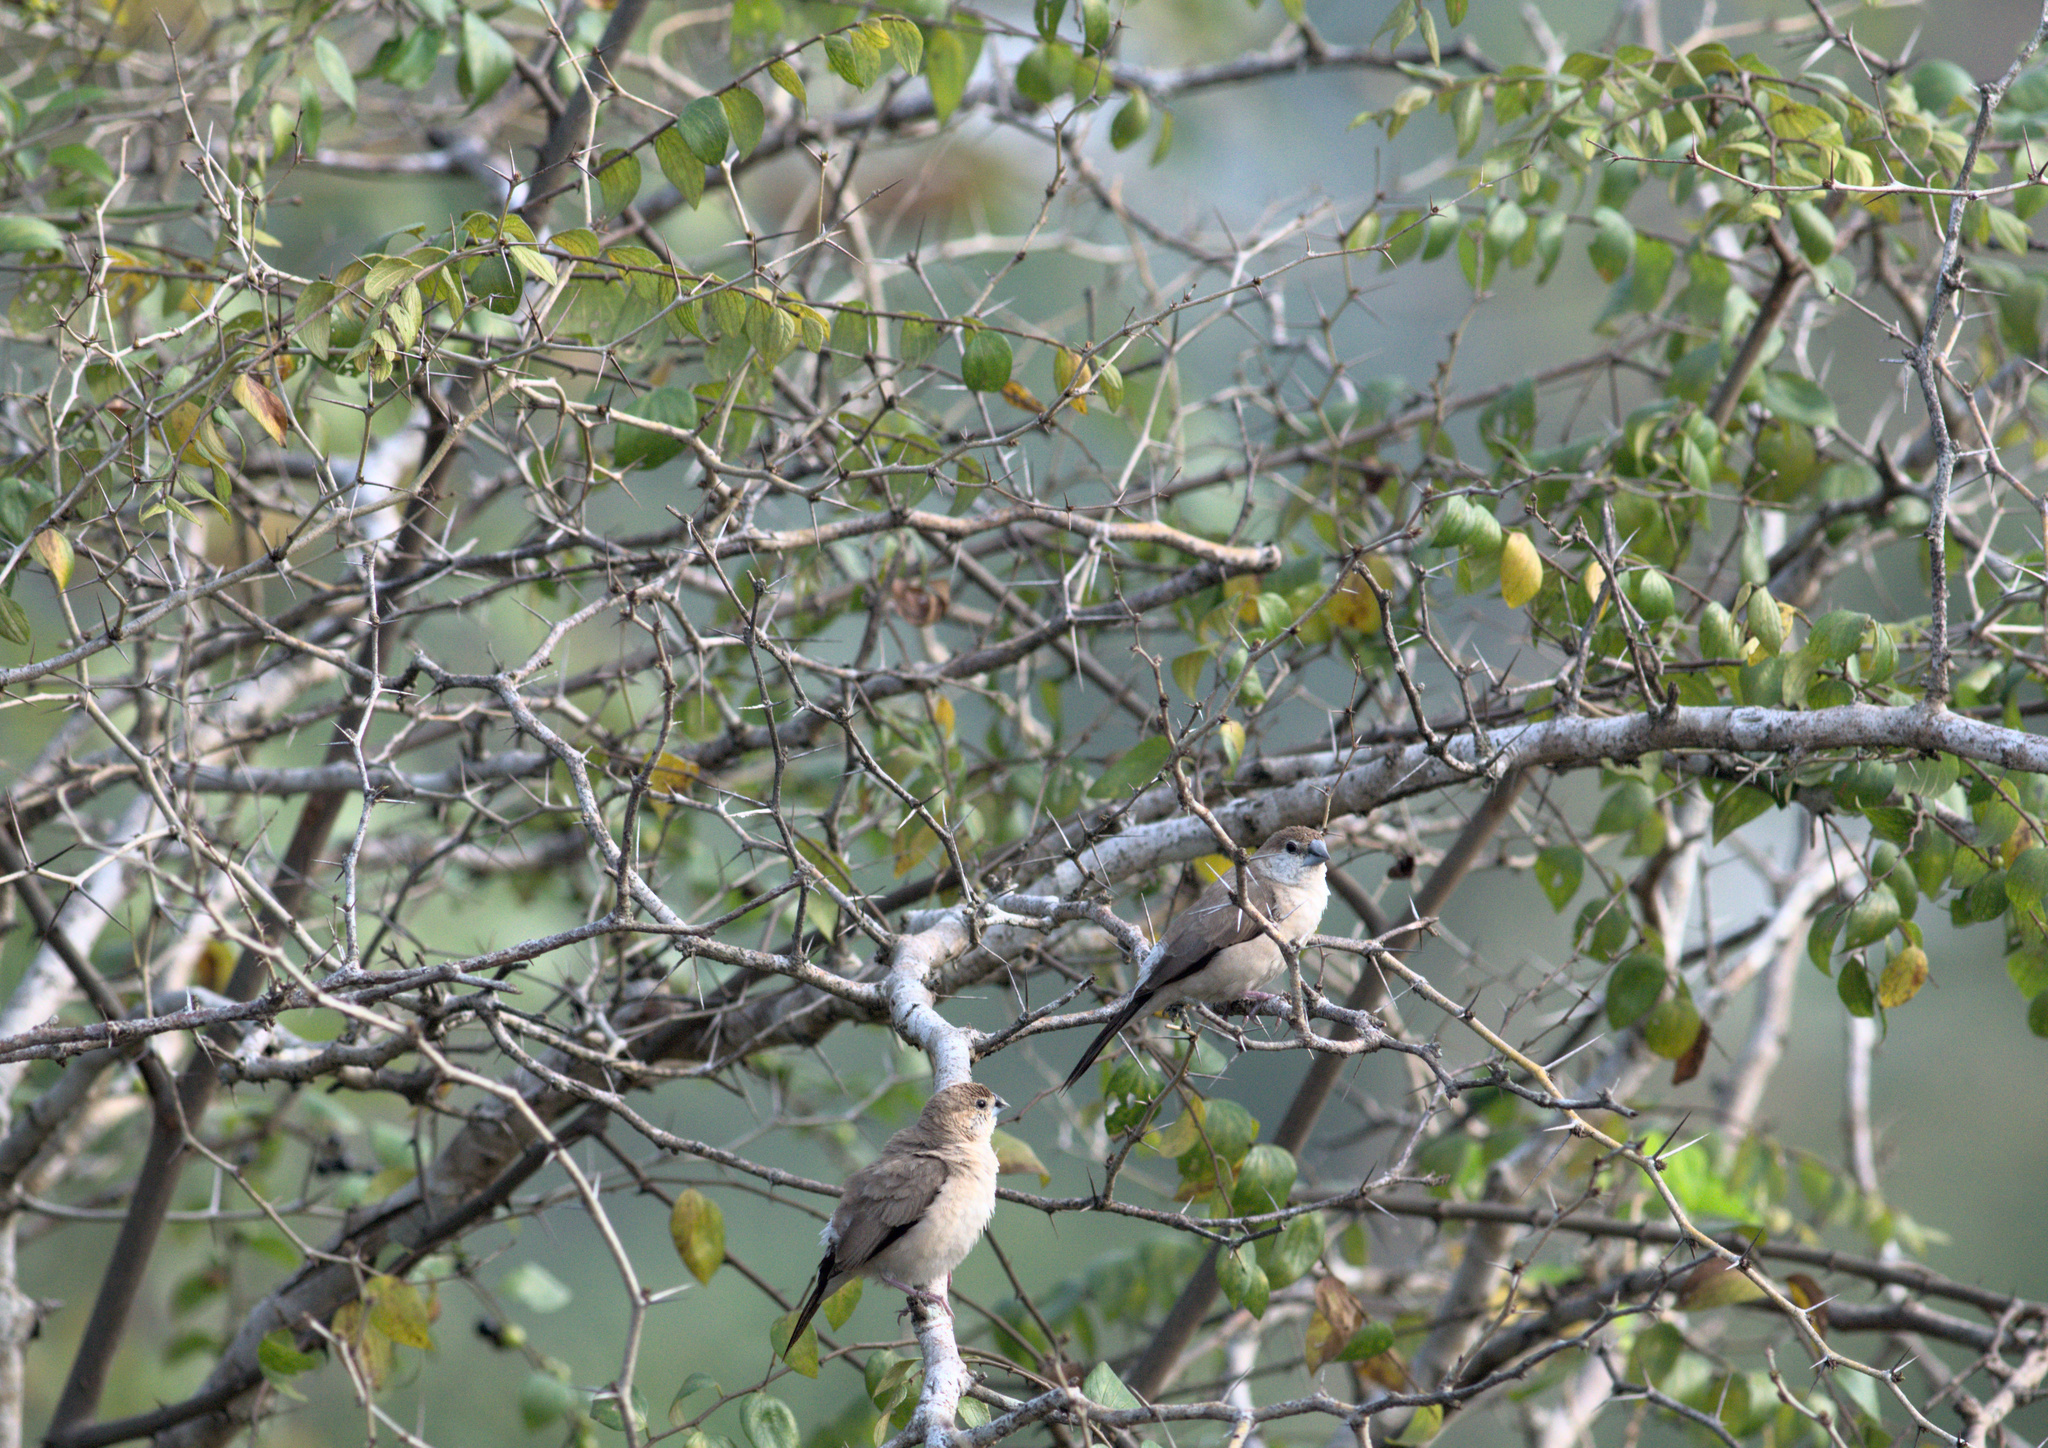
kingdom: Animalia
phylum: Chordata
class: Aves
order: Passeriformes
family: Estrildidae
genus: Euodice
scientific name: Euodice malabarica
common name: Indian silverbill
